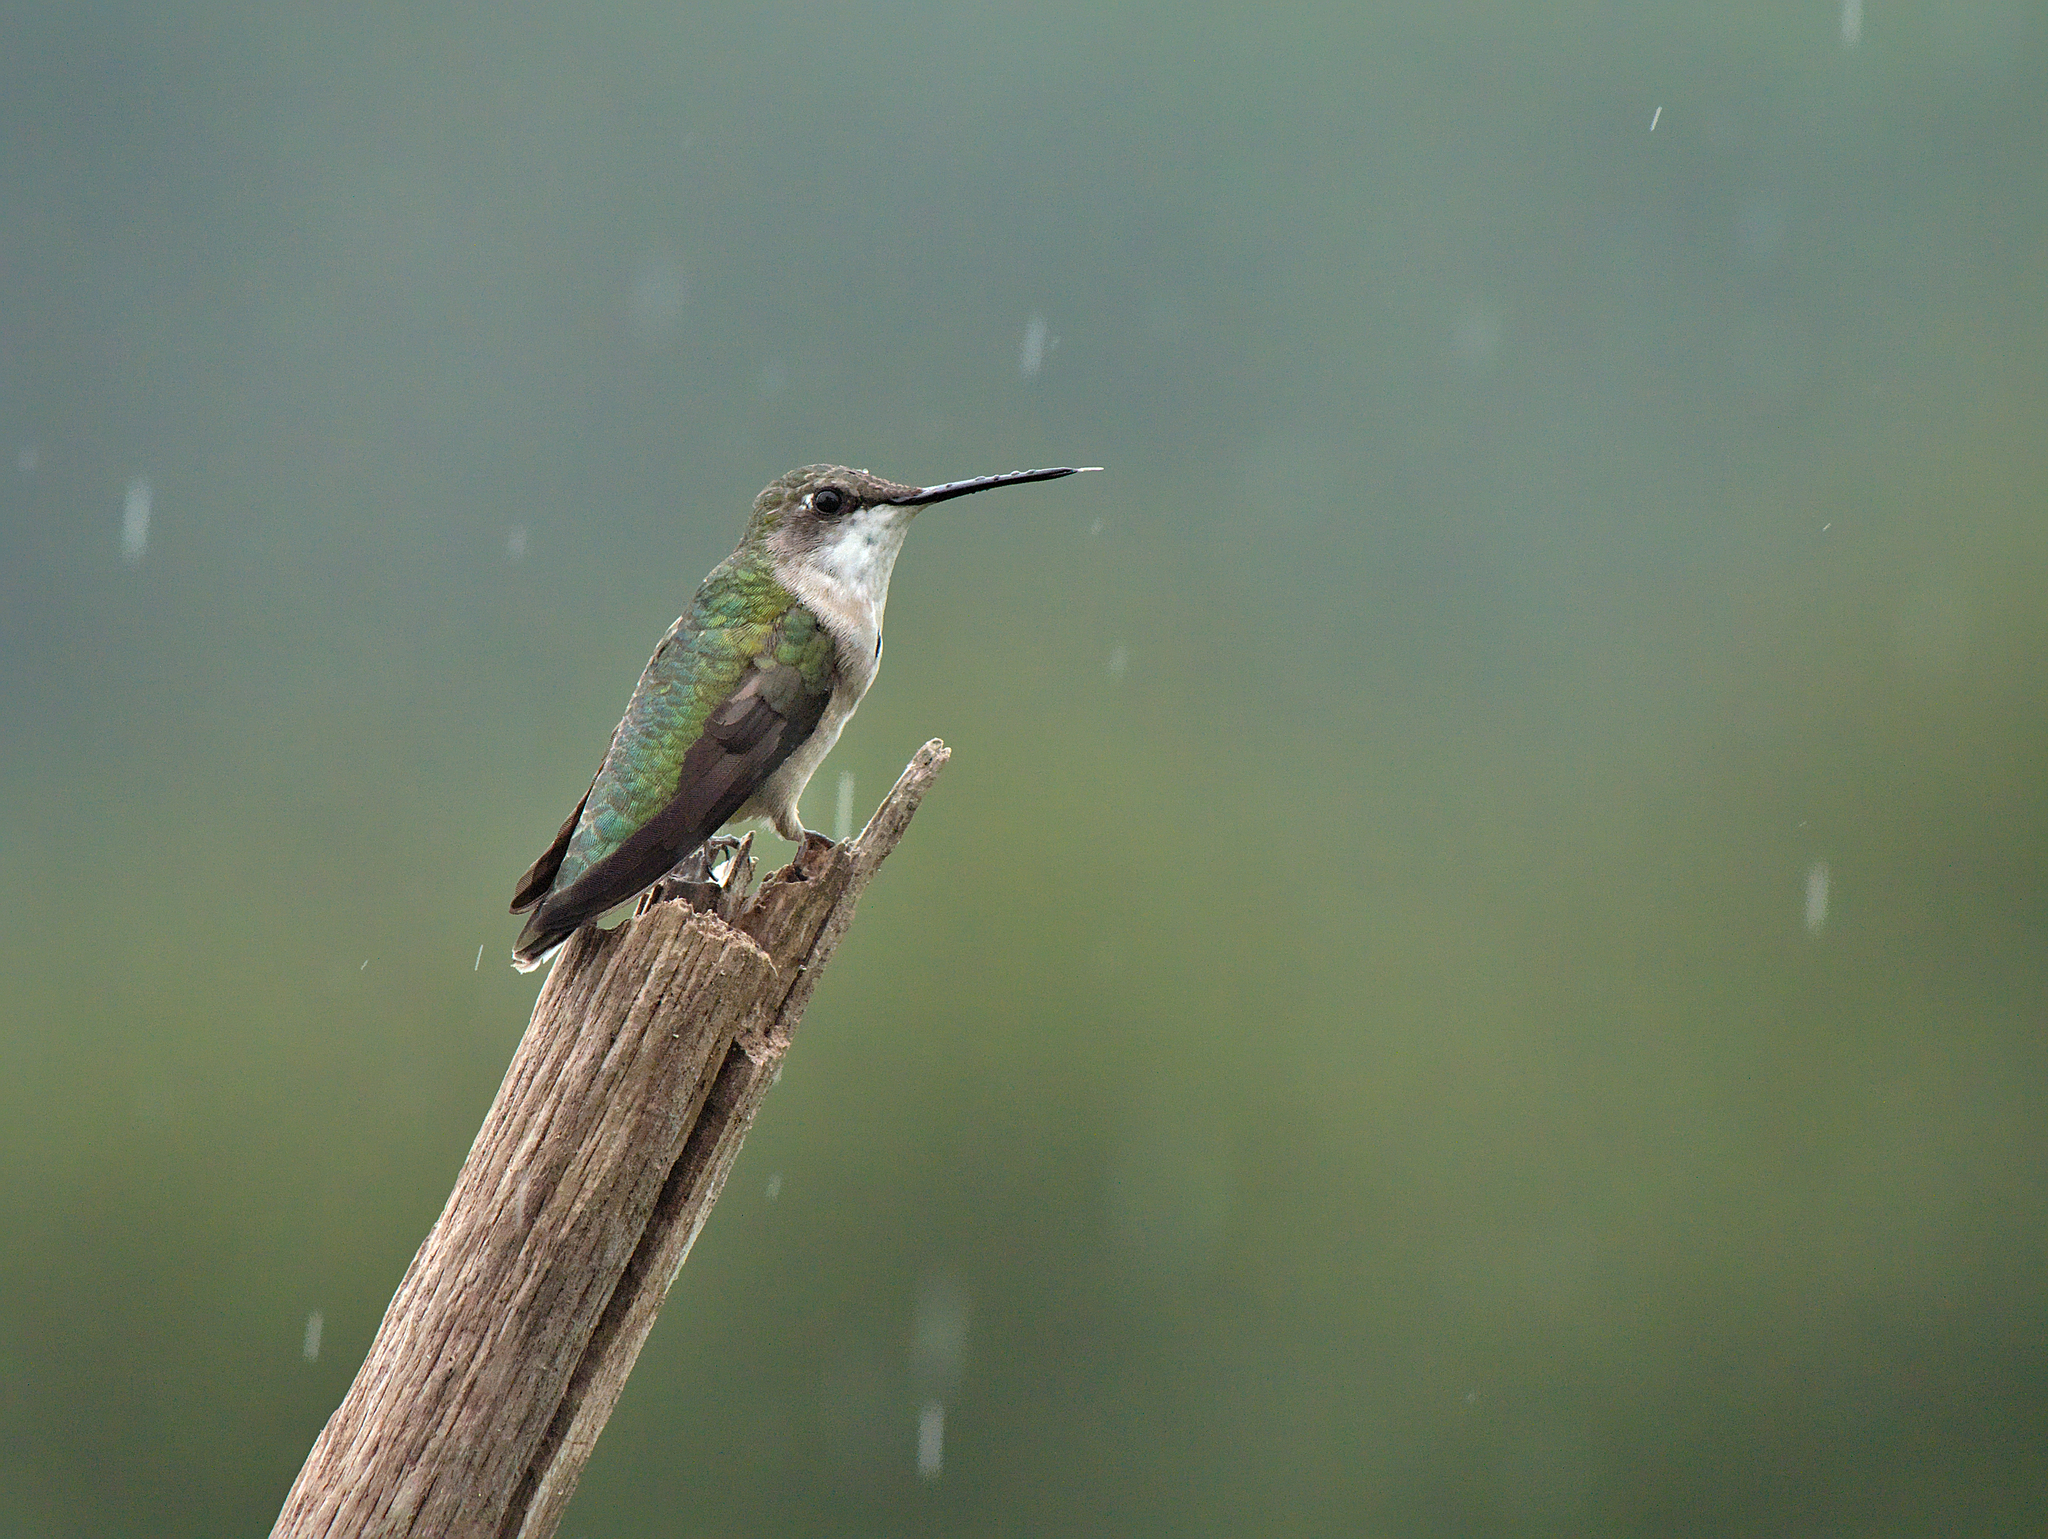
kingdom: Animalia
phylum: Chordata
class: Aves
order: Apodiformes
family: Trochilidae
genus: Archilochus
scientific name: Archilochus colubris
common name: Ruby-throated hummingbird
